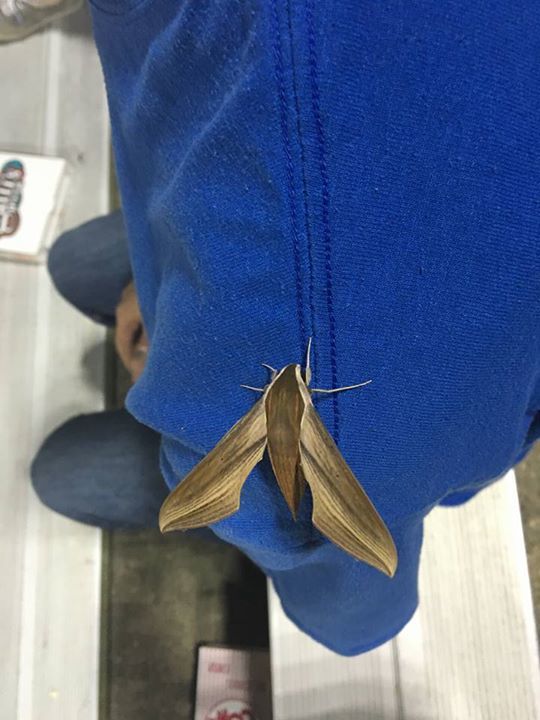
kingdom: Animalia
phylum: Arthropoda
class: Insecta
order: Lepidoptera
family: Sphingidae
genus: Xylophanes
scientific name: Xylophanes tersa
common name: Tersa sphinx
